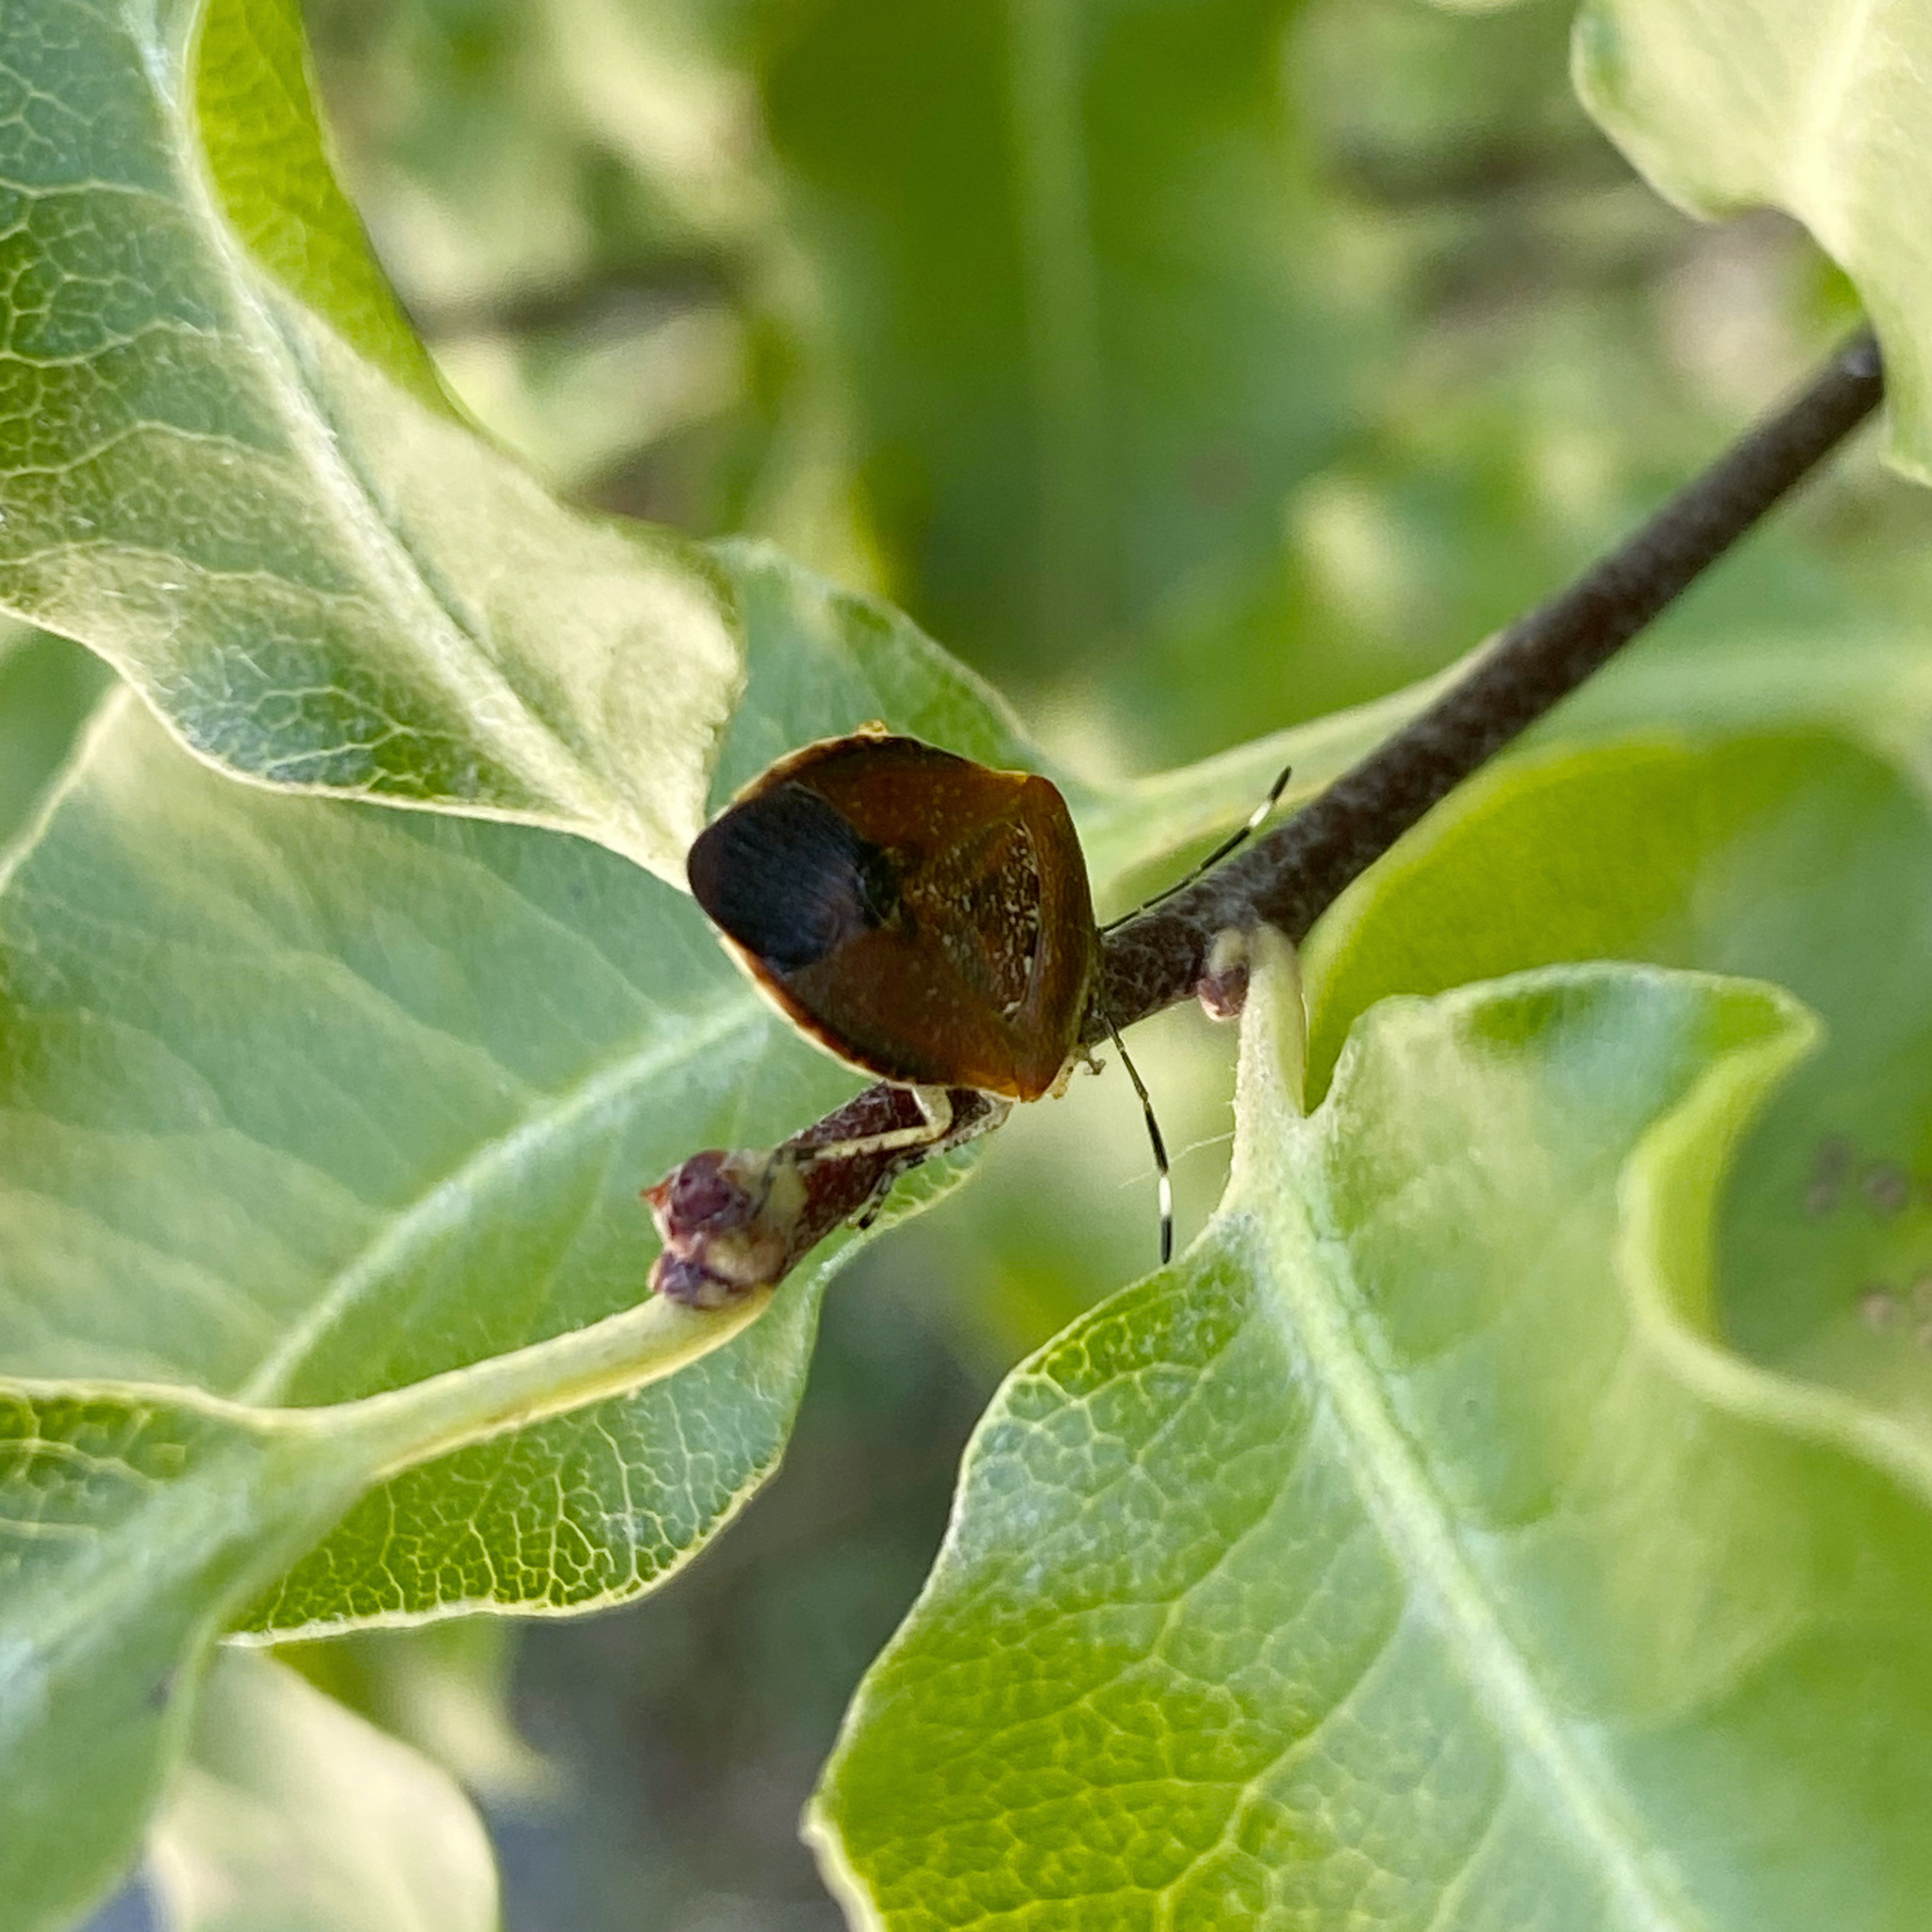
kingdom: Animalia
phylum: Arthropoda
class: Insecta
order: Hemiptera
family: Pentatomidae
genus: Monteithiella
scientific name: Monteithiella
